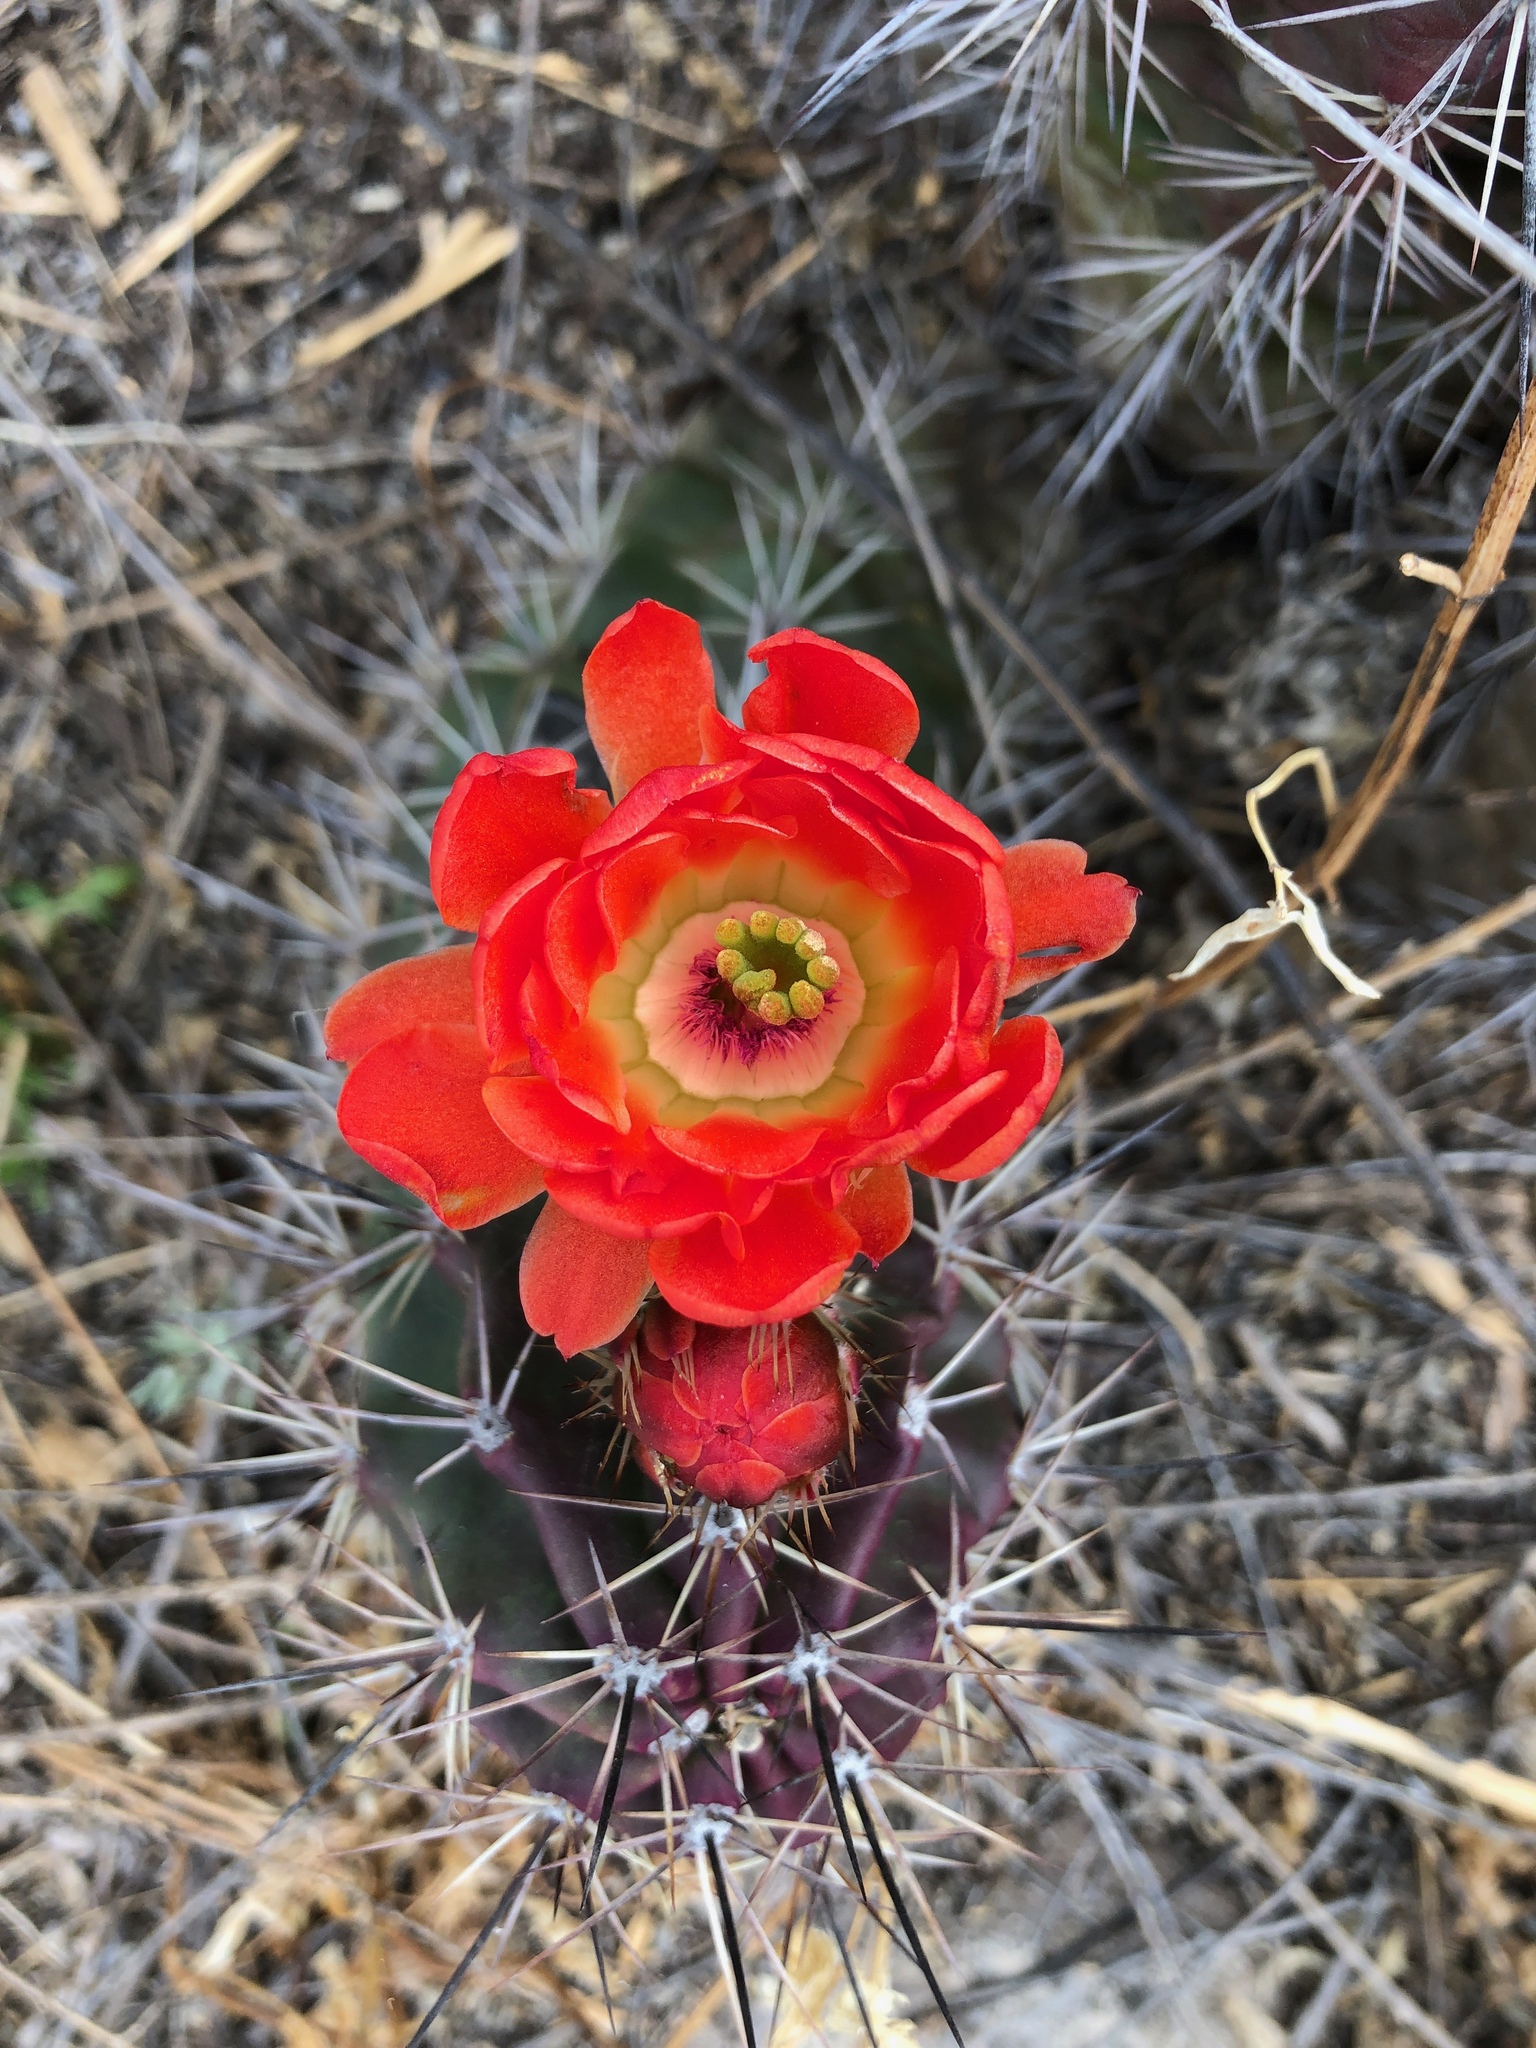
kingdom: Plantae
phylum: Tracheophyta
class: Magnoliopsida
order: Caryophyllales
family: Cactaceae
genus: Echinocereus
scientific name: Echinocereus coccineus
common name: Scarlet hedgehog cactus
